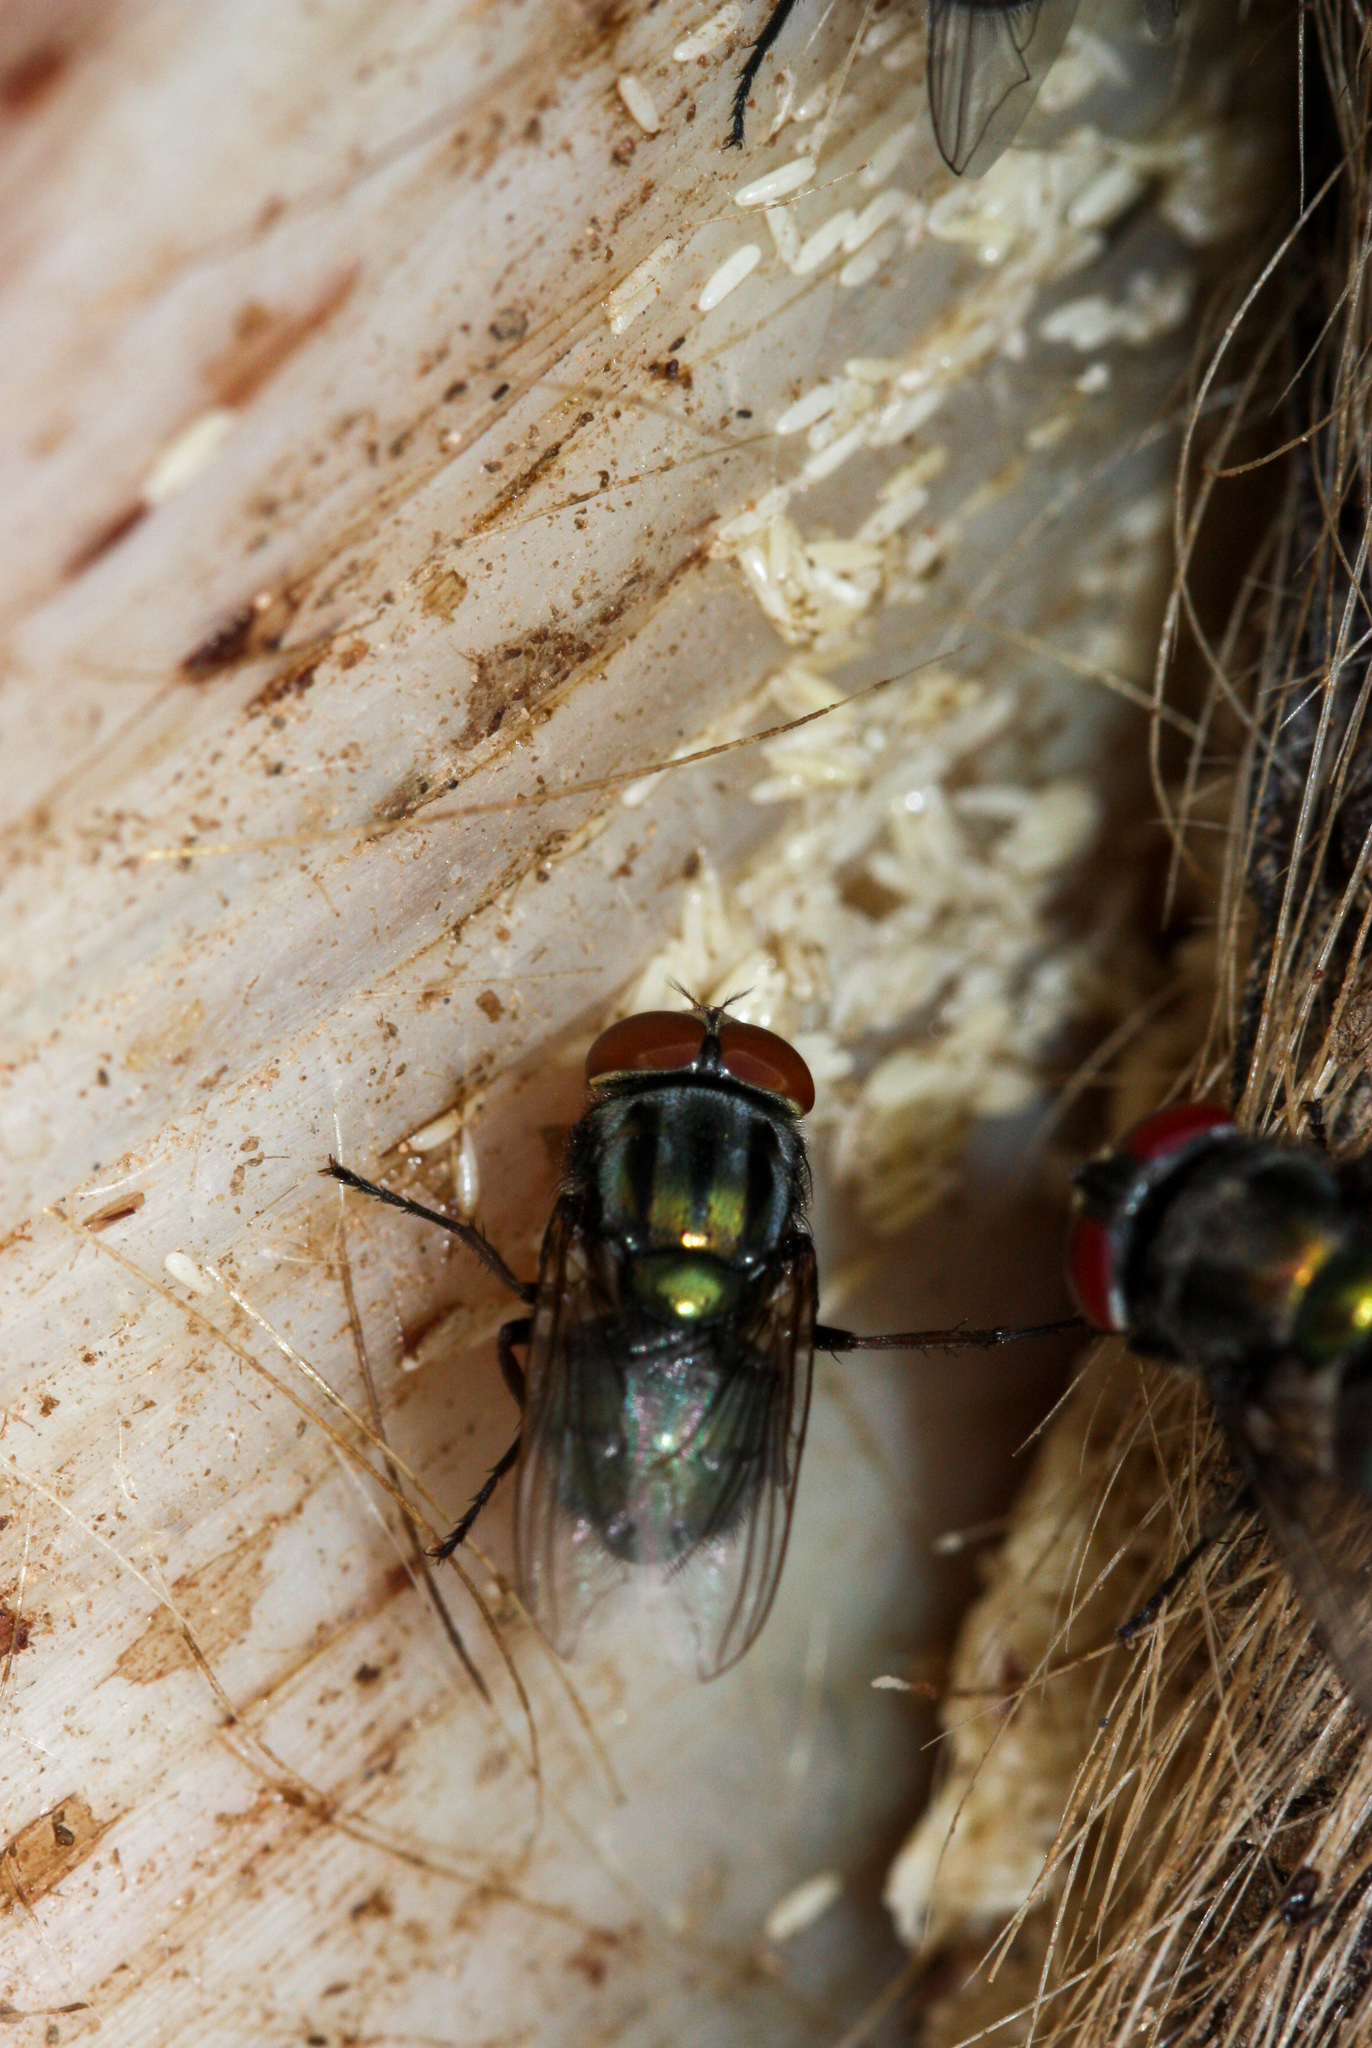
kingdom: Animalia
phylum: Arthropoda
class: Insecta
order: Diptera
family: Calliphoridae
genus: Cochliomyia
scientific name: Cochliomyia macellaria
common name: Secondary screwworm
